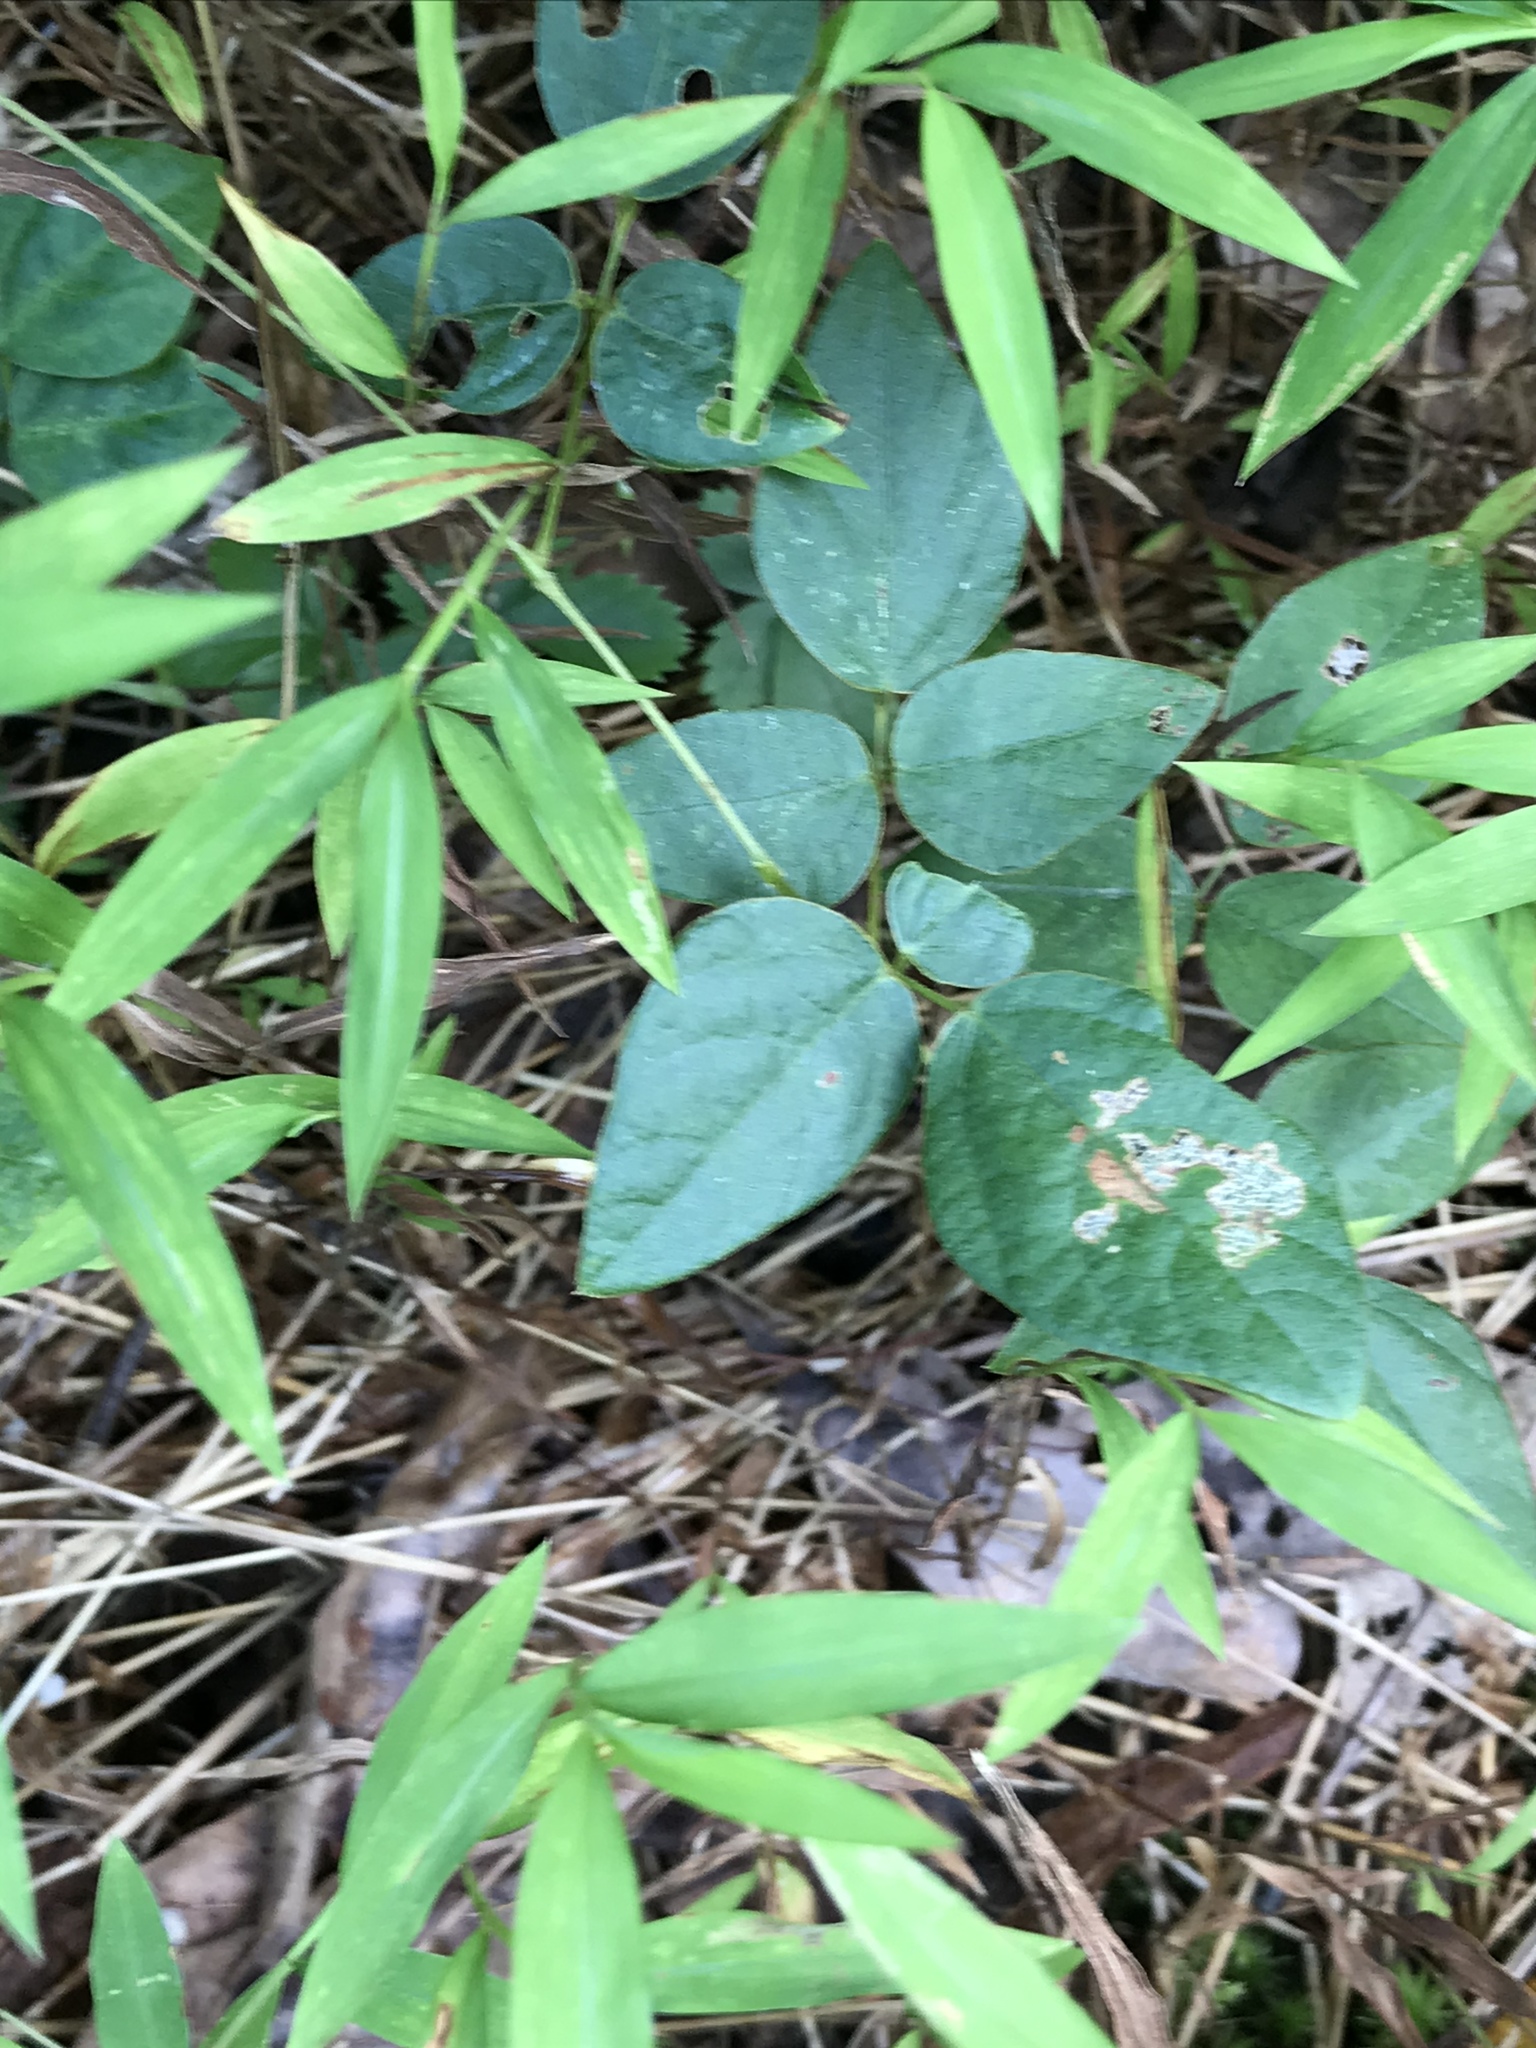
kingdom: Plantae
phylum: Tracheophyta
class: Magnoliopsida
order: Fabales
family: Fabaceae
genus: Hylodesmum
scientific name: Hylodesmum nudiflorum
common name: Bare-stemmed tick-trefoil
